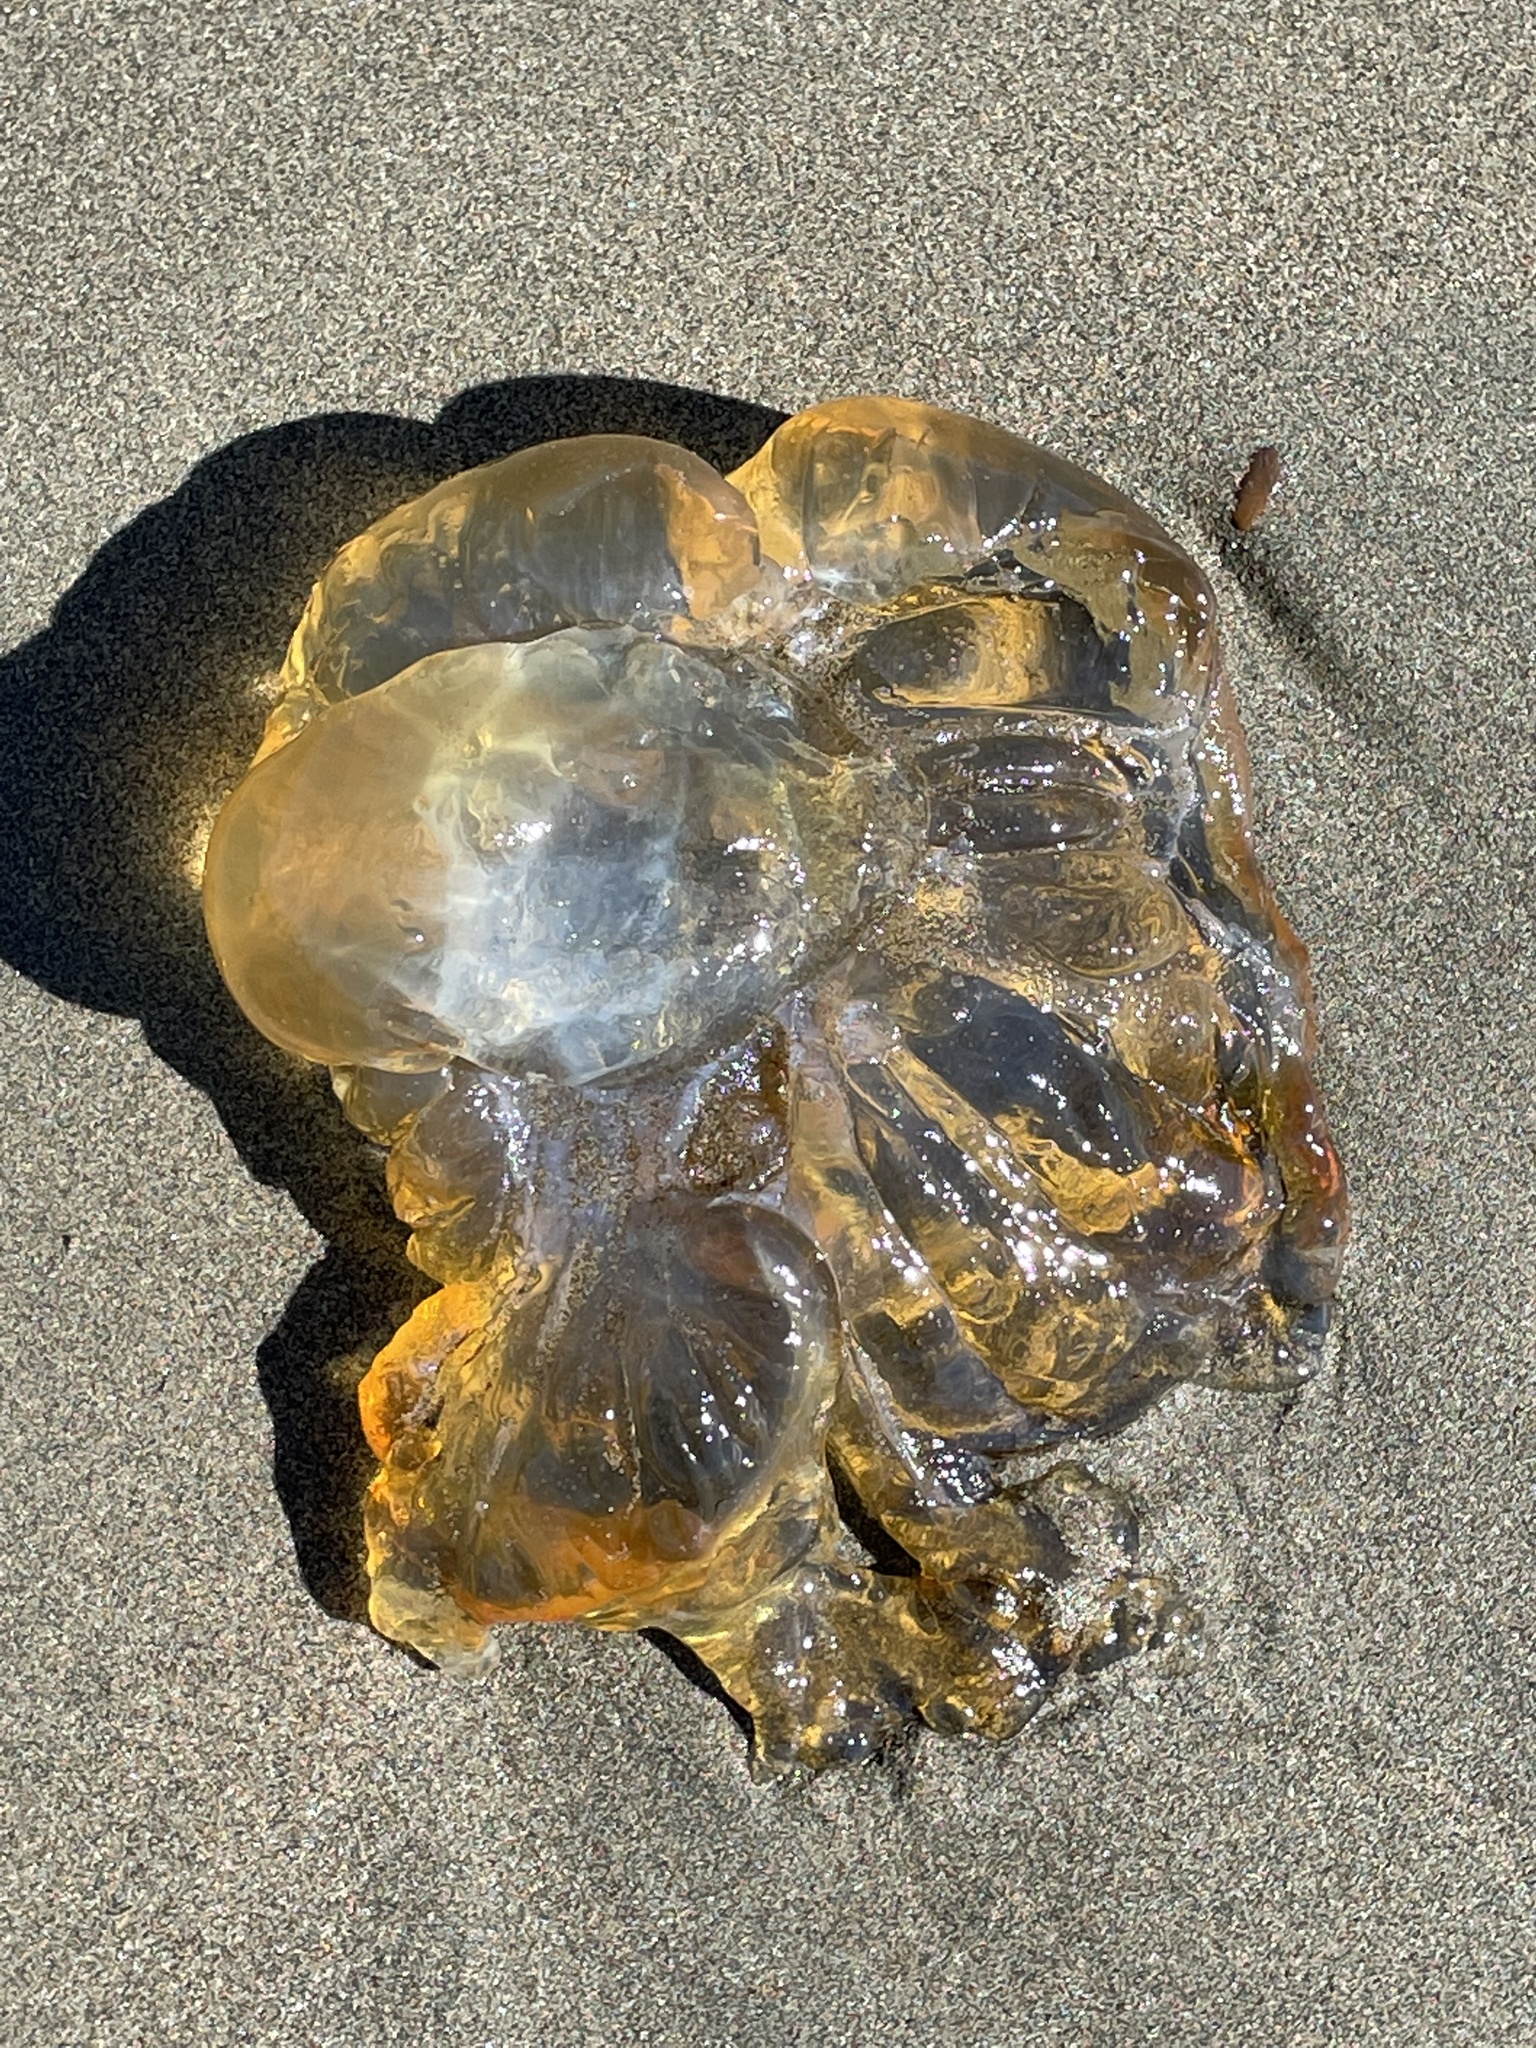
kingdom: Animalia
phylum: Cnidaria
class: Scyphozoa
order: Semaeostomeae
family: Pelagiidae
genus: Chrysaora
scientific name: Chrysaora fuscescens
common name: Sea nettle
